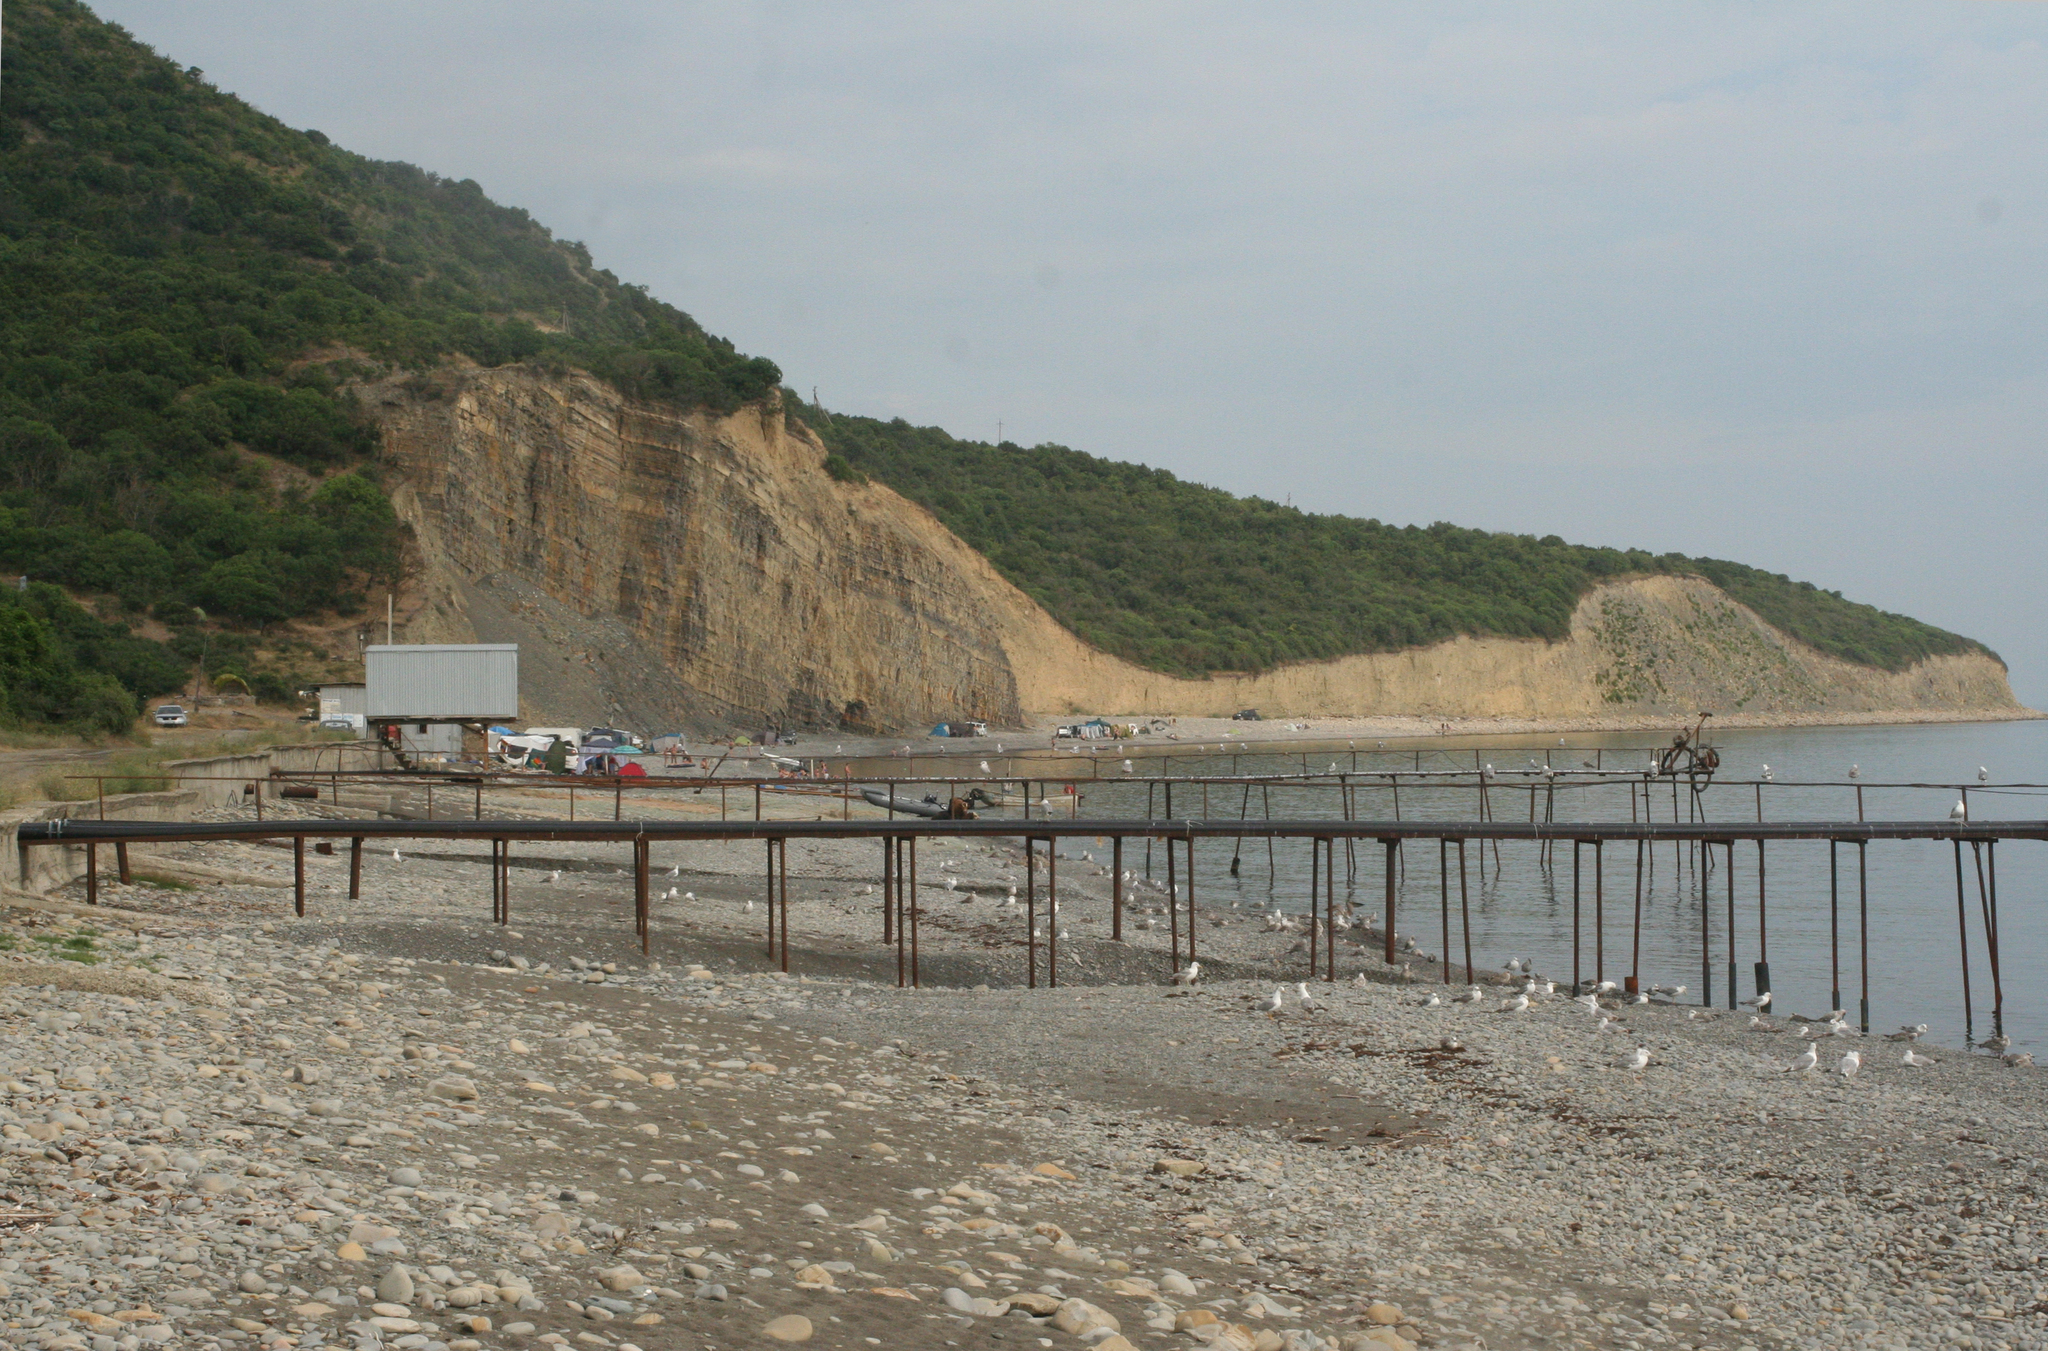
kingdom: Animalia
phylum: Chordata
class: Aves
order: Charadriiformes
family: Laridae
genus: Larus
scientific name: Larus michahellis
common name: Yellow-legged gull
